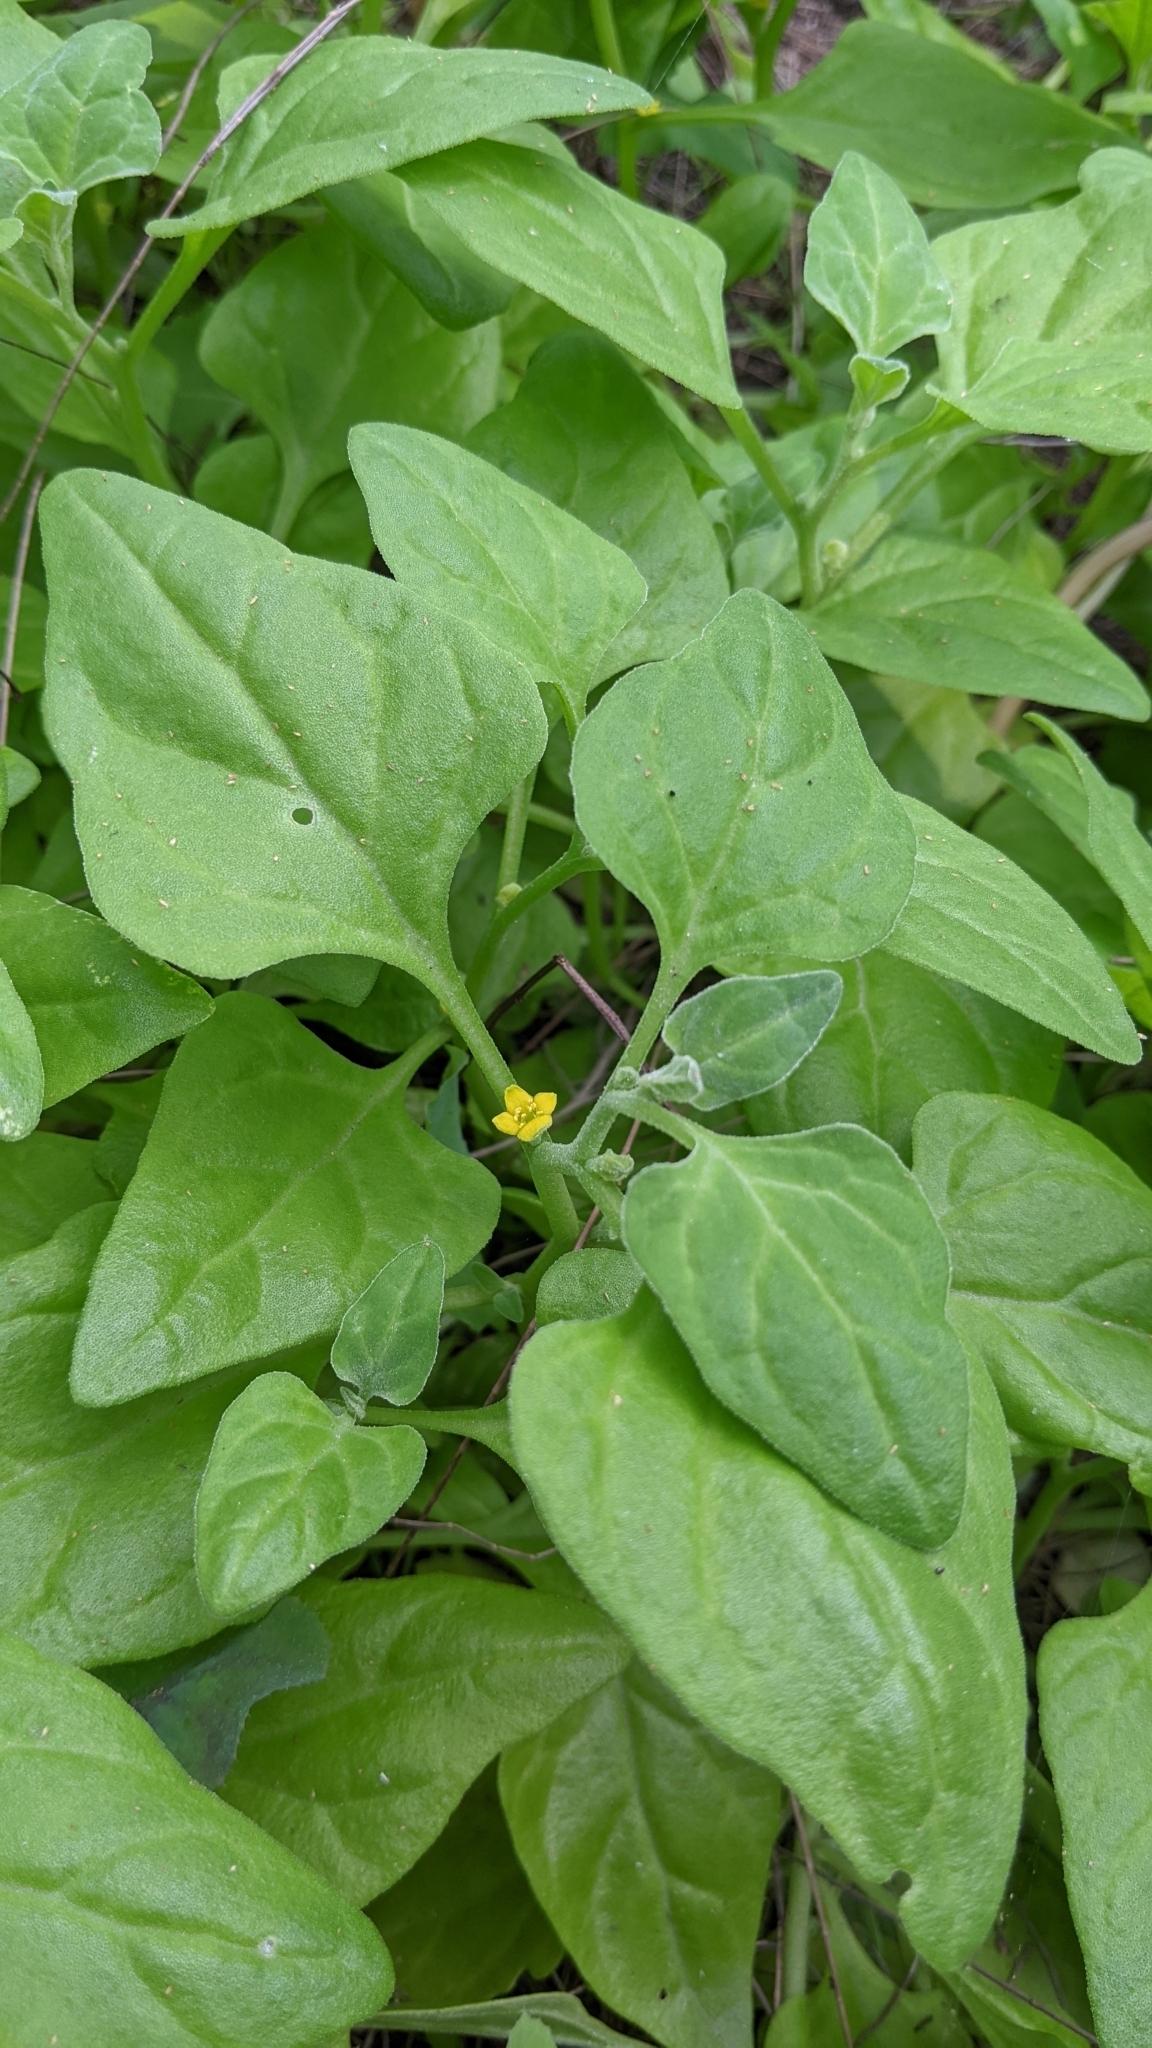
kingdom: Plantae
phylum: Tracheophyta
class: Magnoliopsida
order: Caryophyllales
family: Aizoaceae
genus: Tetragonia
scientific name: Tetragonia tetragonoides
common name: New zealand-spinach
